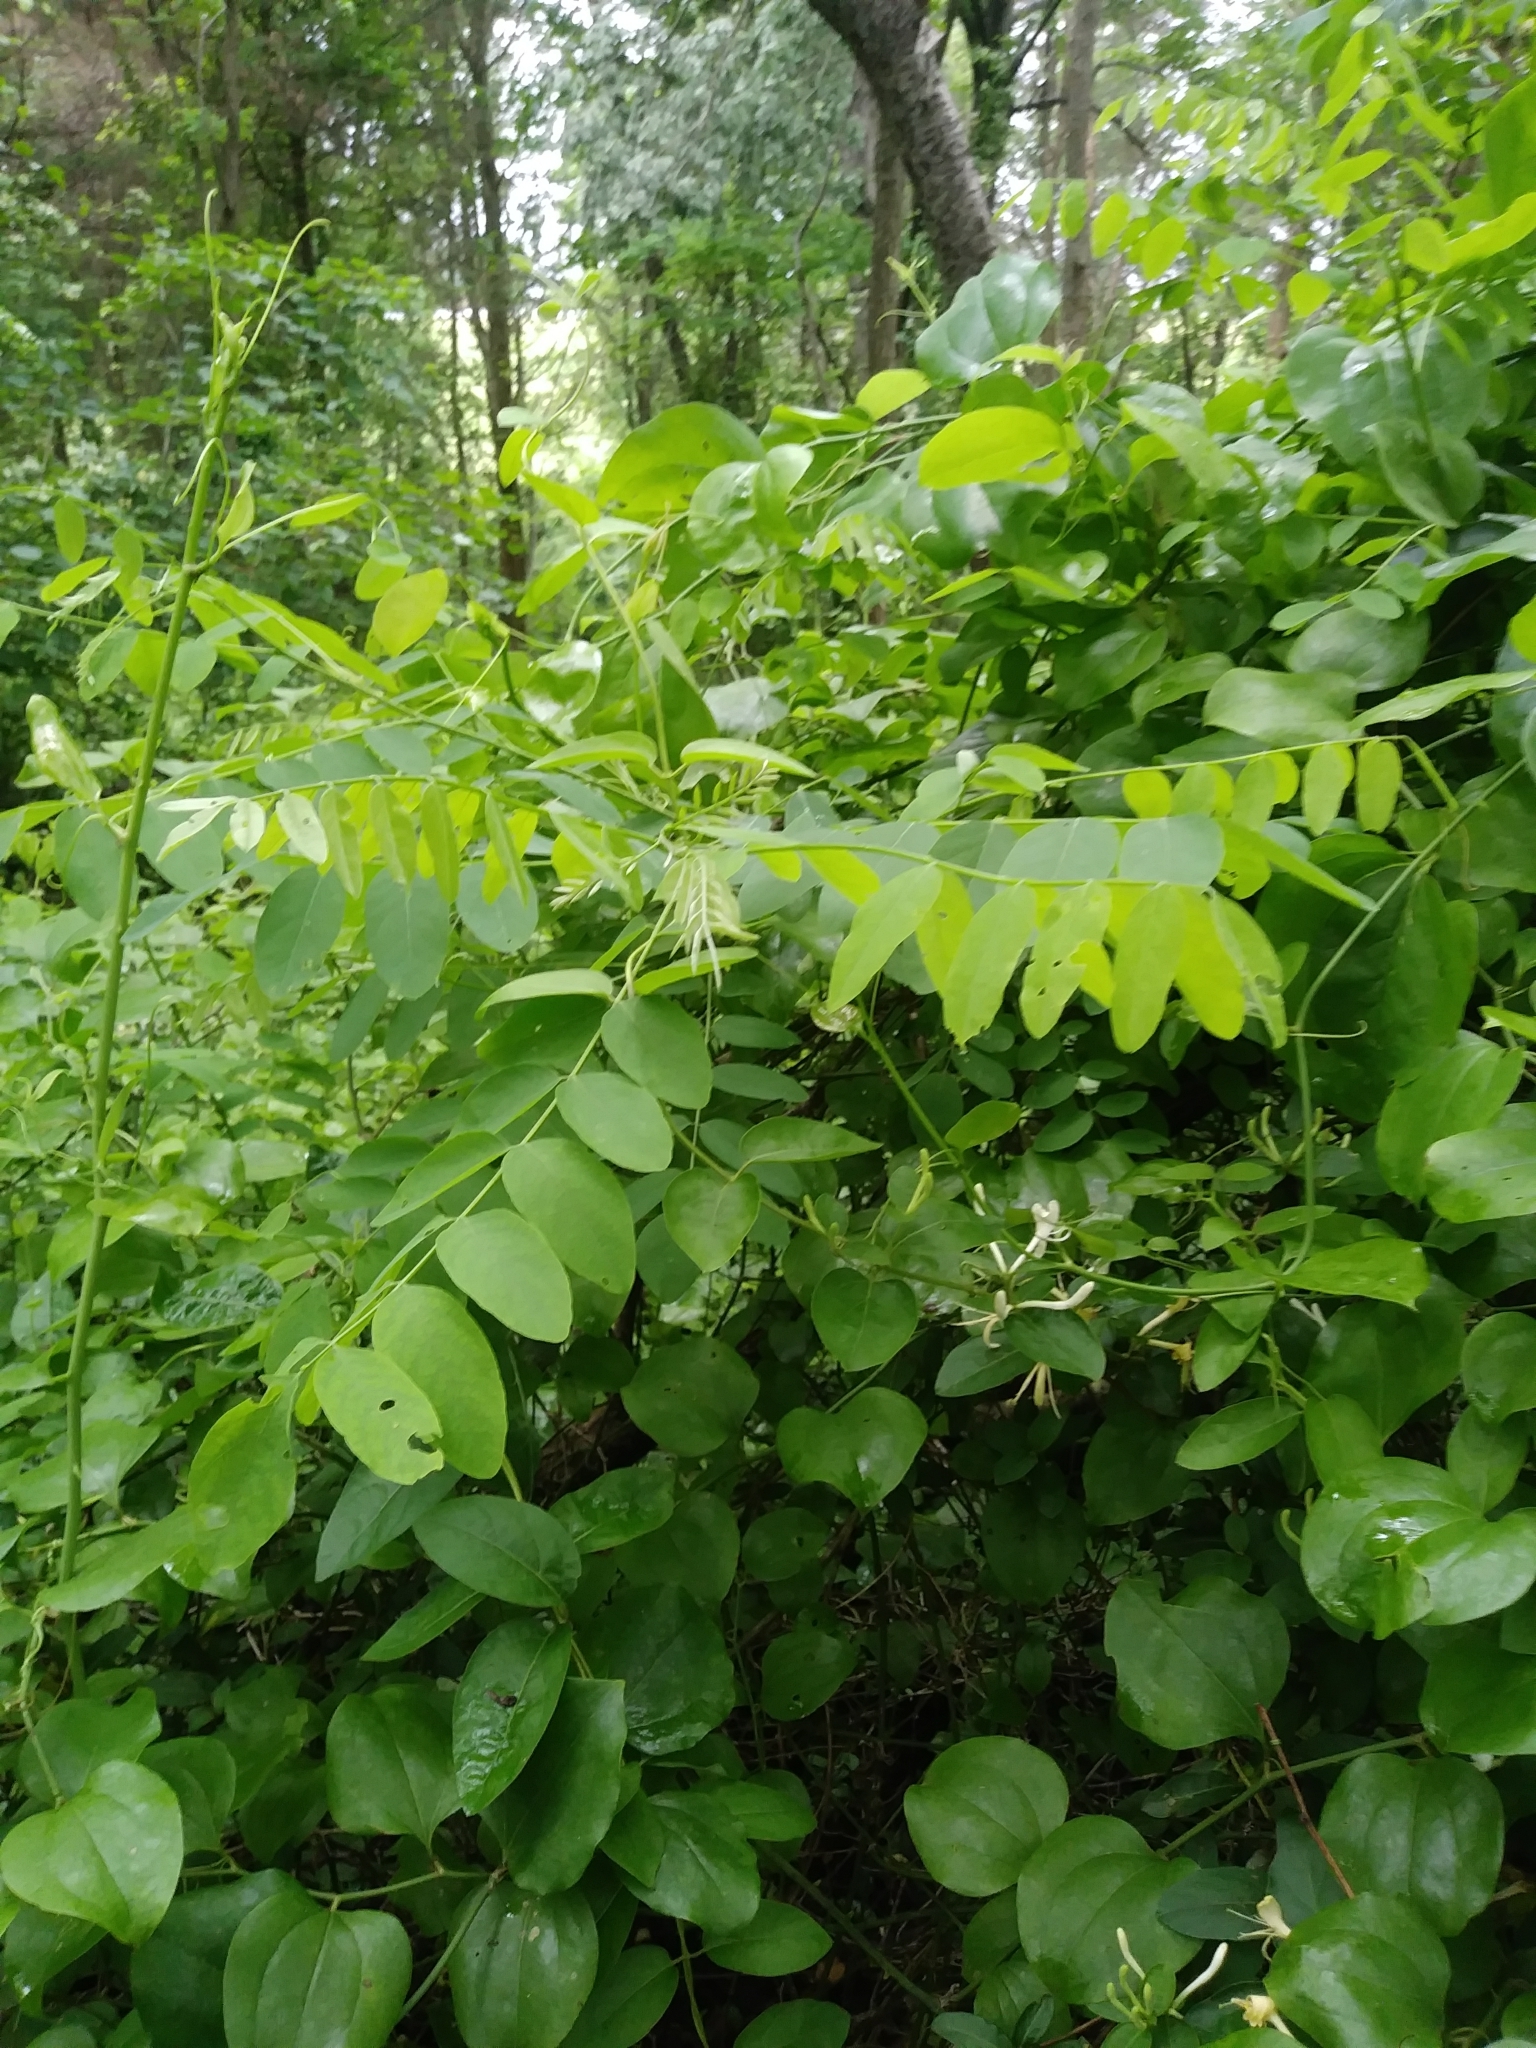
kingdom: Plantae
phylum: Tracheophyta
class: Magnoliopsida
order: Fabales
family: Fabaceae
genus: Robinia
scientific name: Robinia pseudoacacia
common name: Black locust
